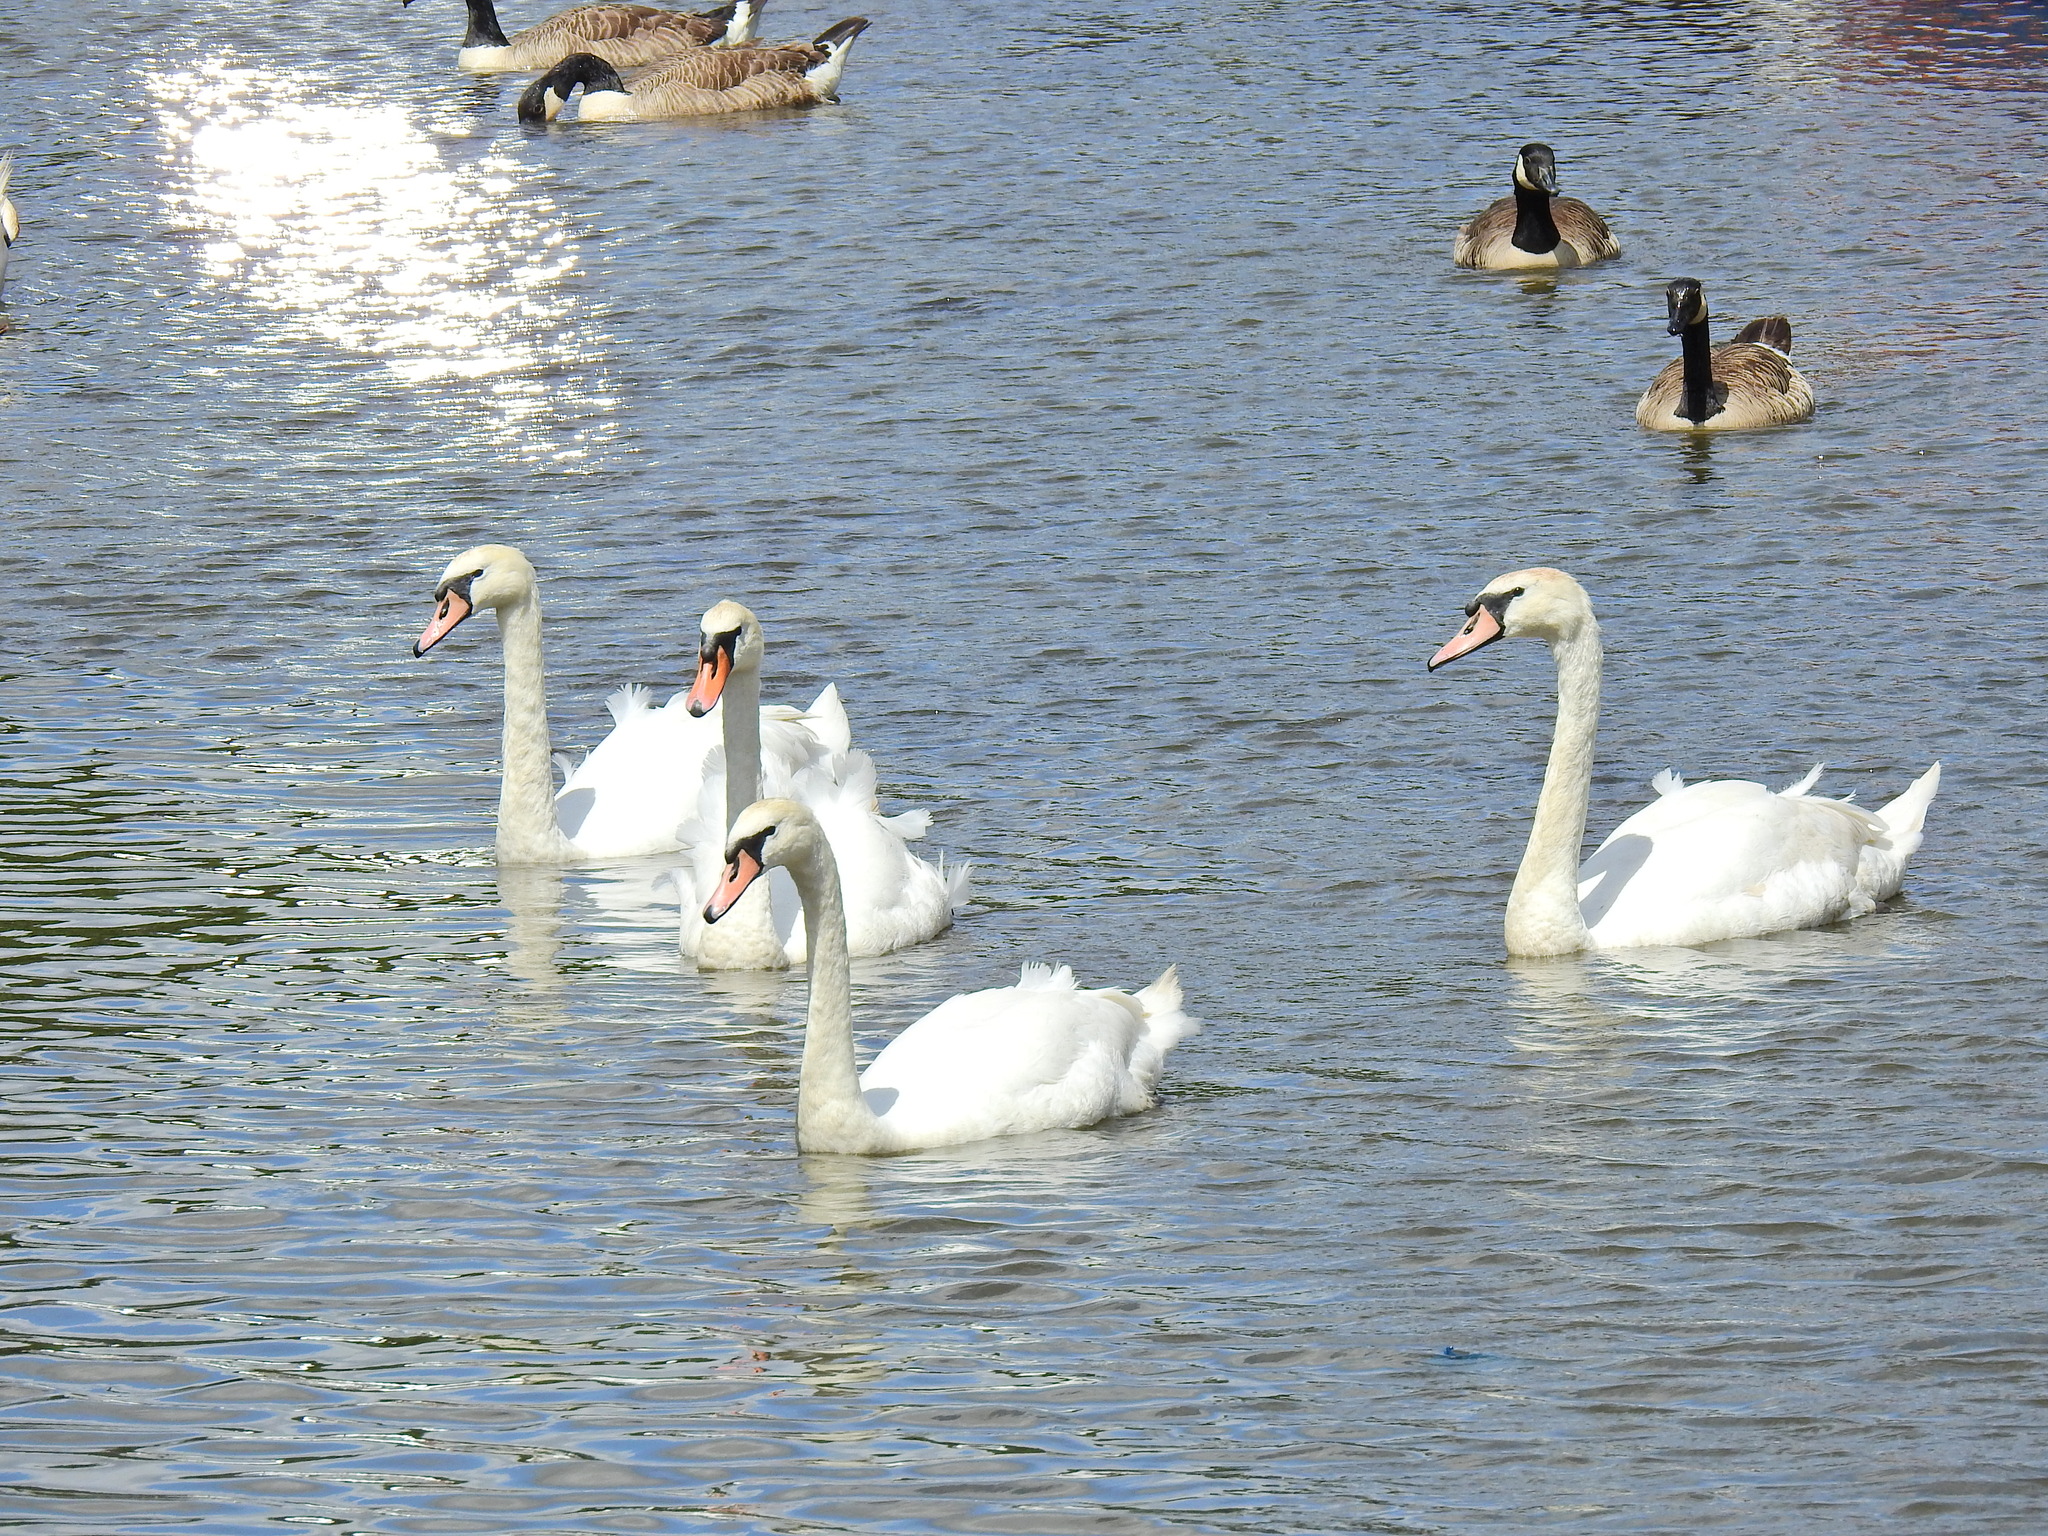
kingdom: Animalia
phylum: Chordata
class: Aves
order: Anseriformes
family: Anatidae
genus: Cygnus
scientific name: Cygnus olor
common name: Mute swan
